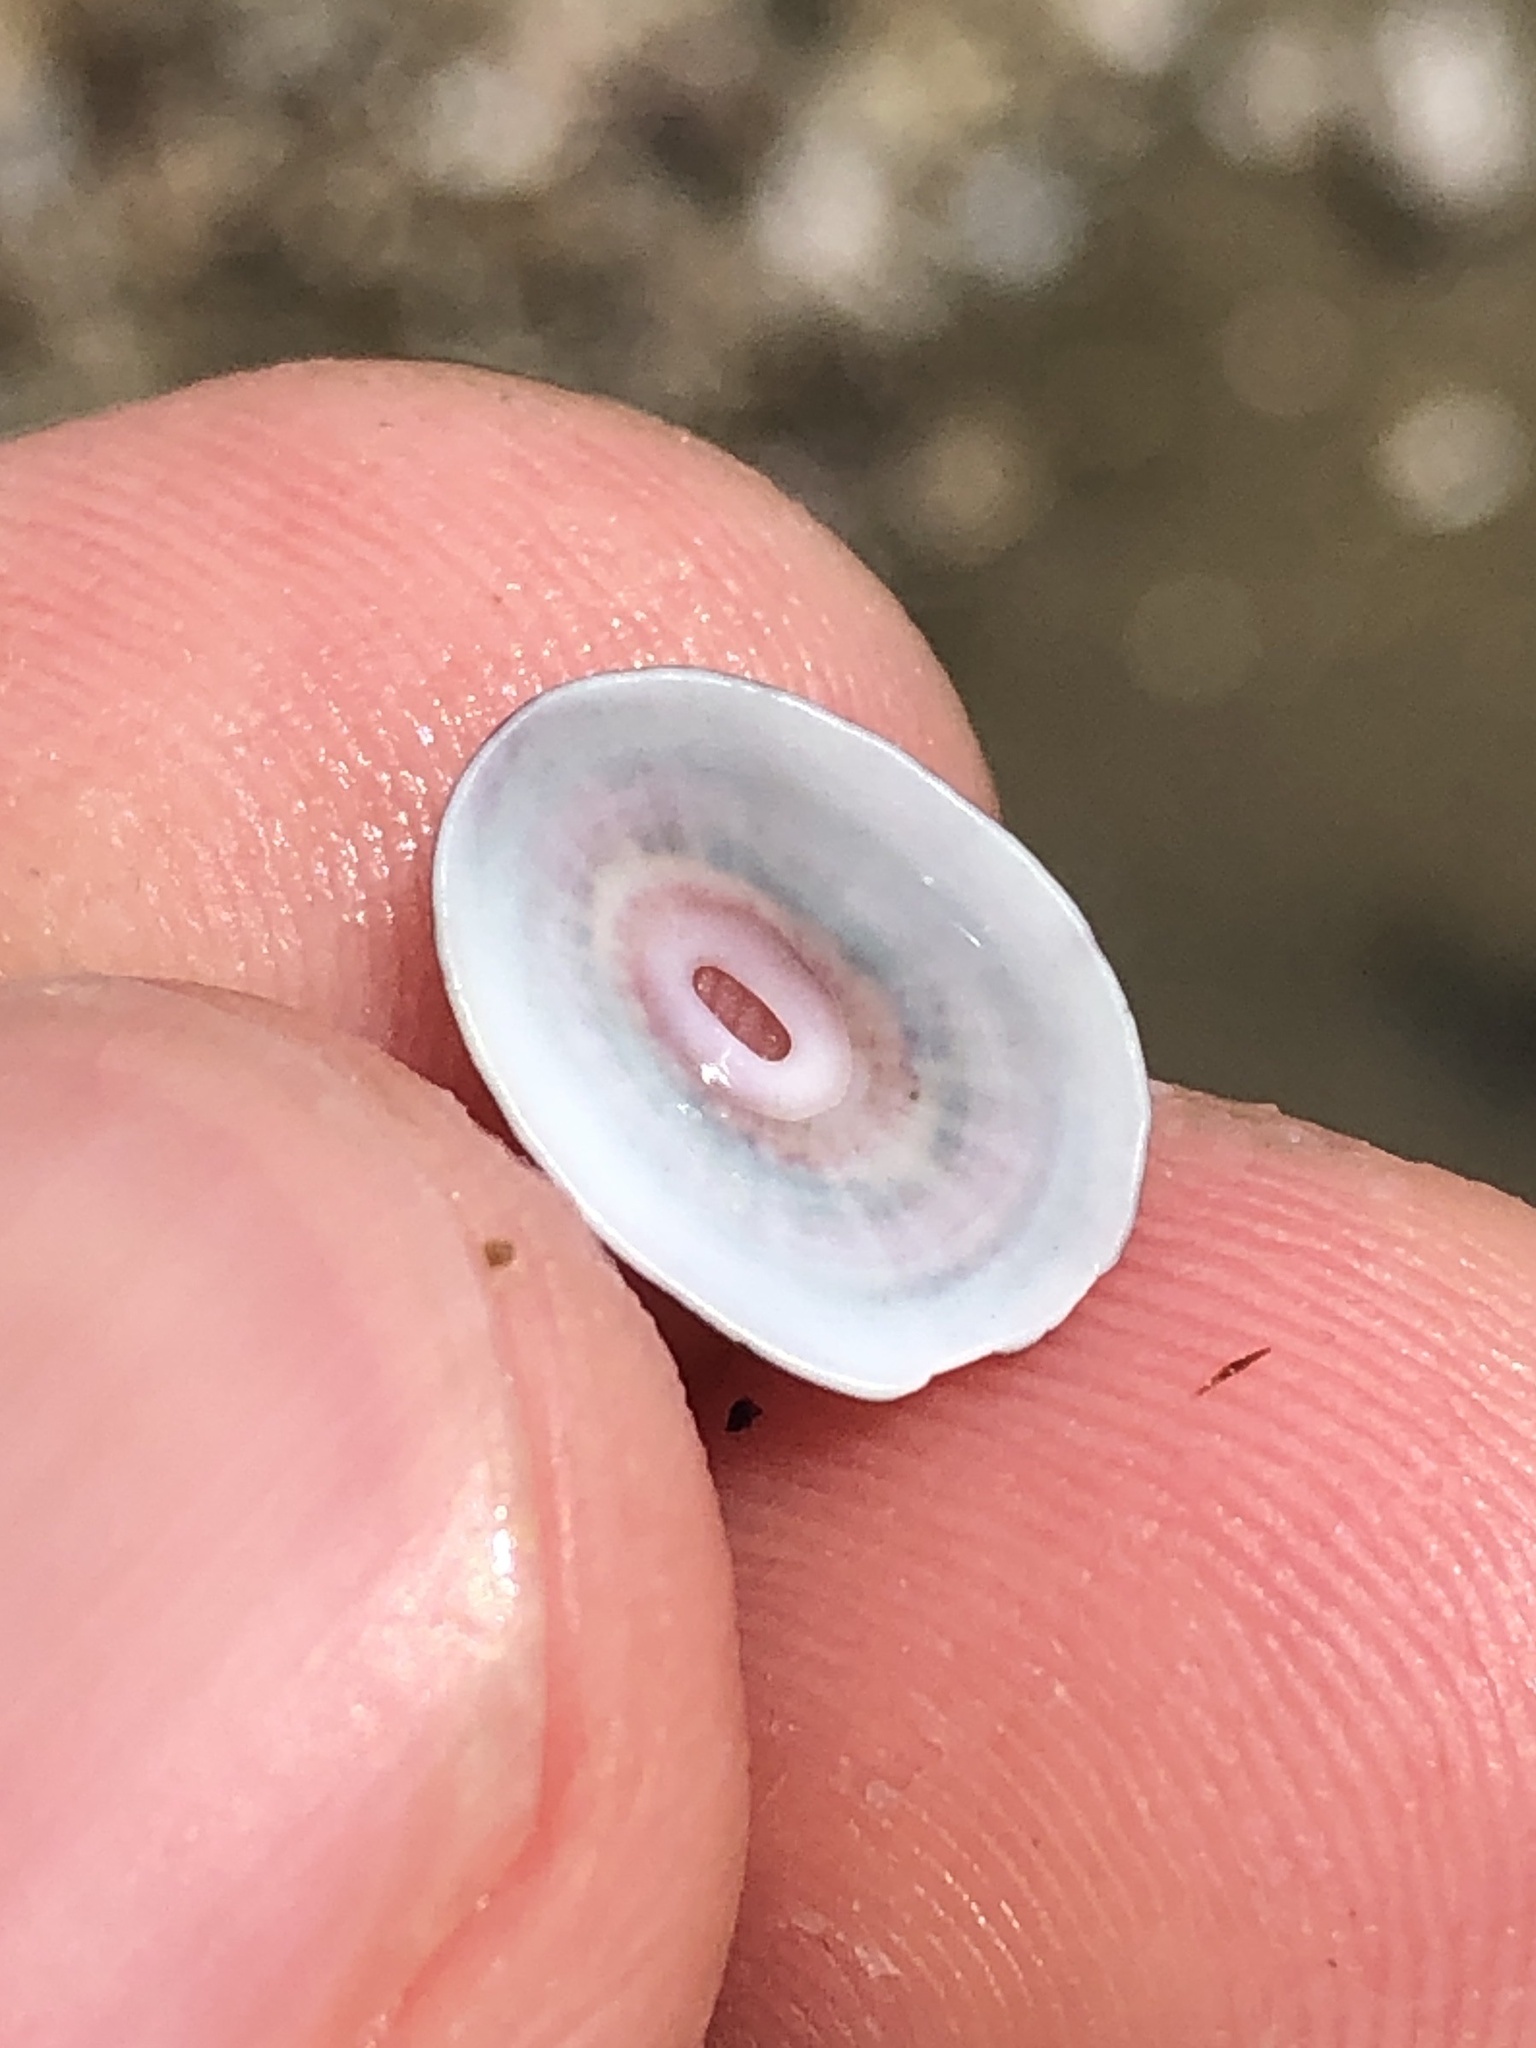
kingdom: Animalia
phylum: Mollusca
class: Gastropoda
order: Lepetellida
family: Fissurellidae
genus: Fissurella
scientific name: Fissurella volcano
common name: Volcano keyhole limpet
